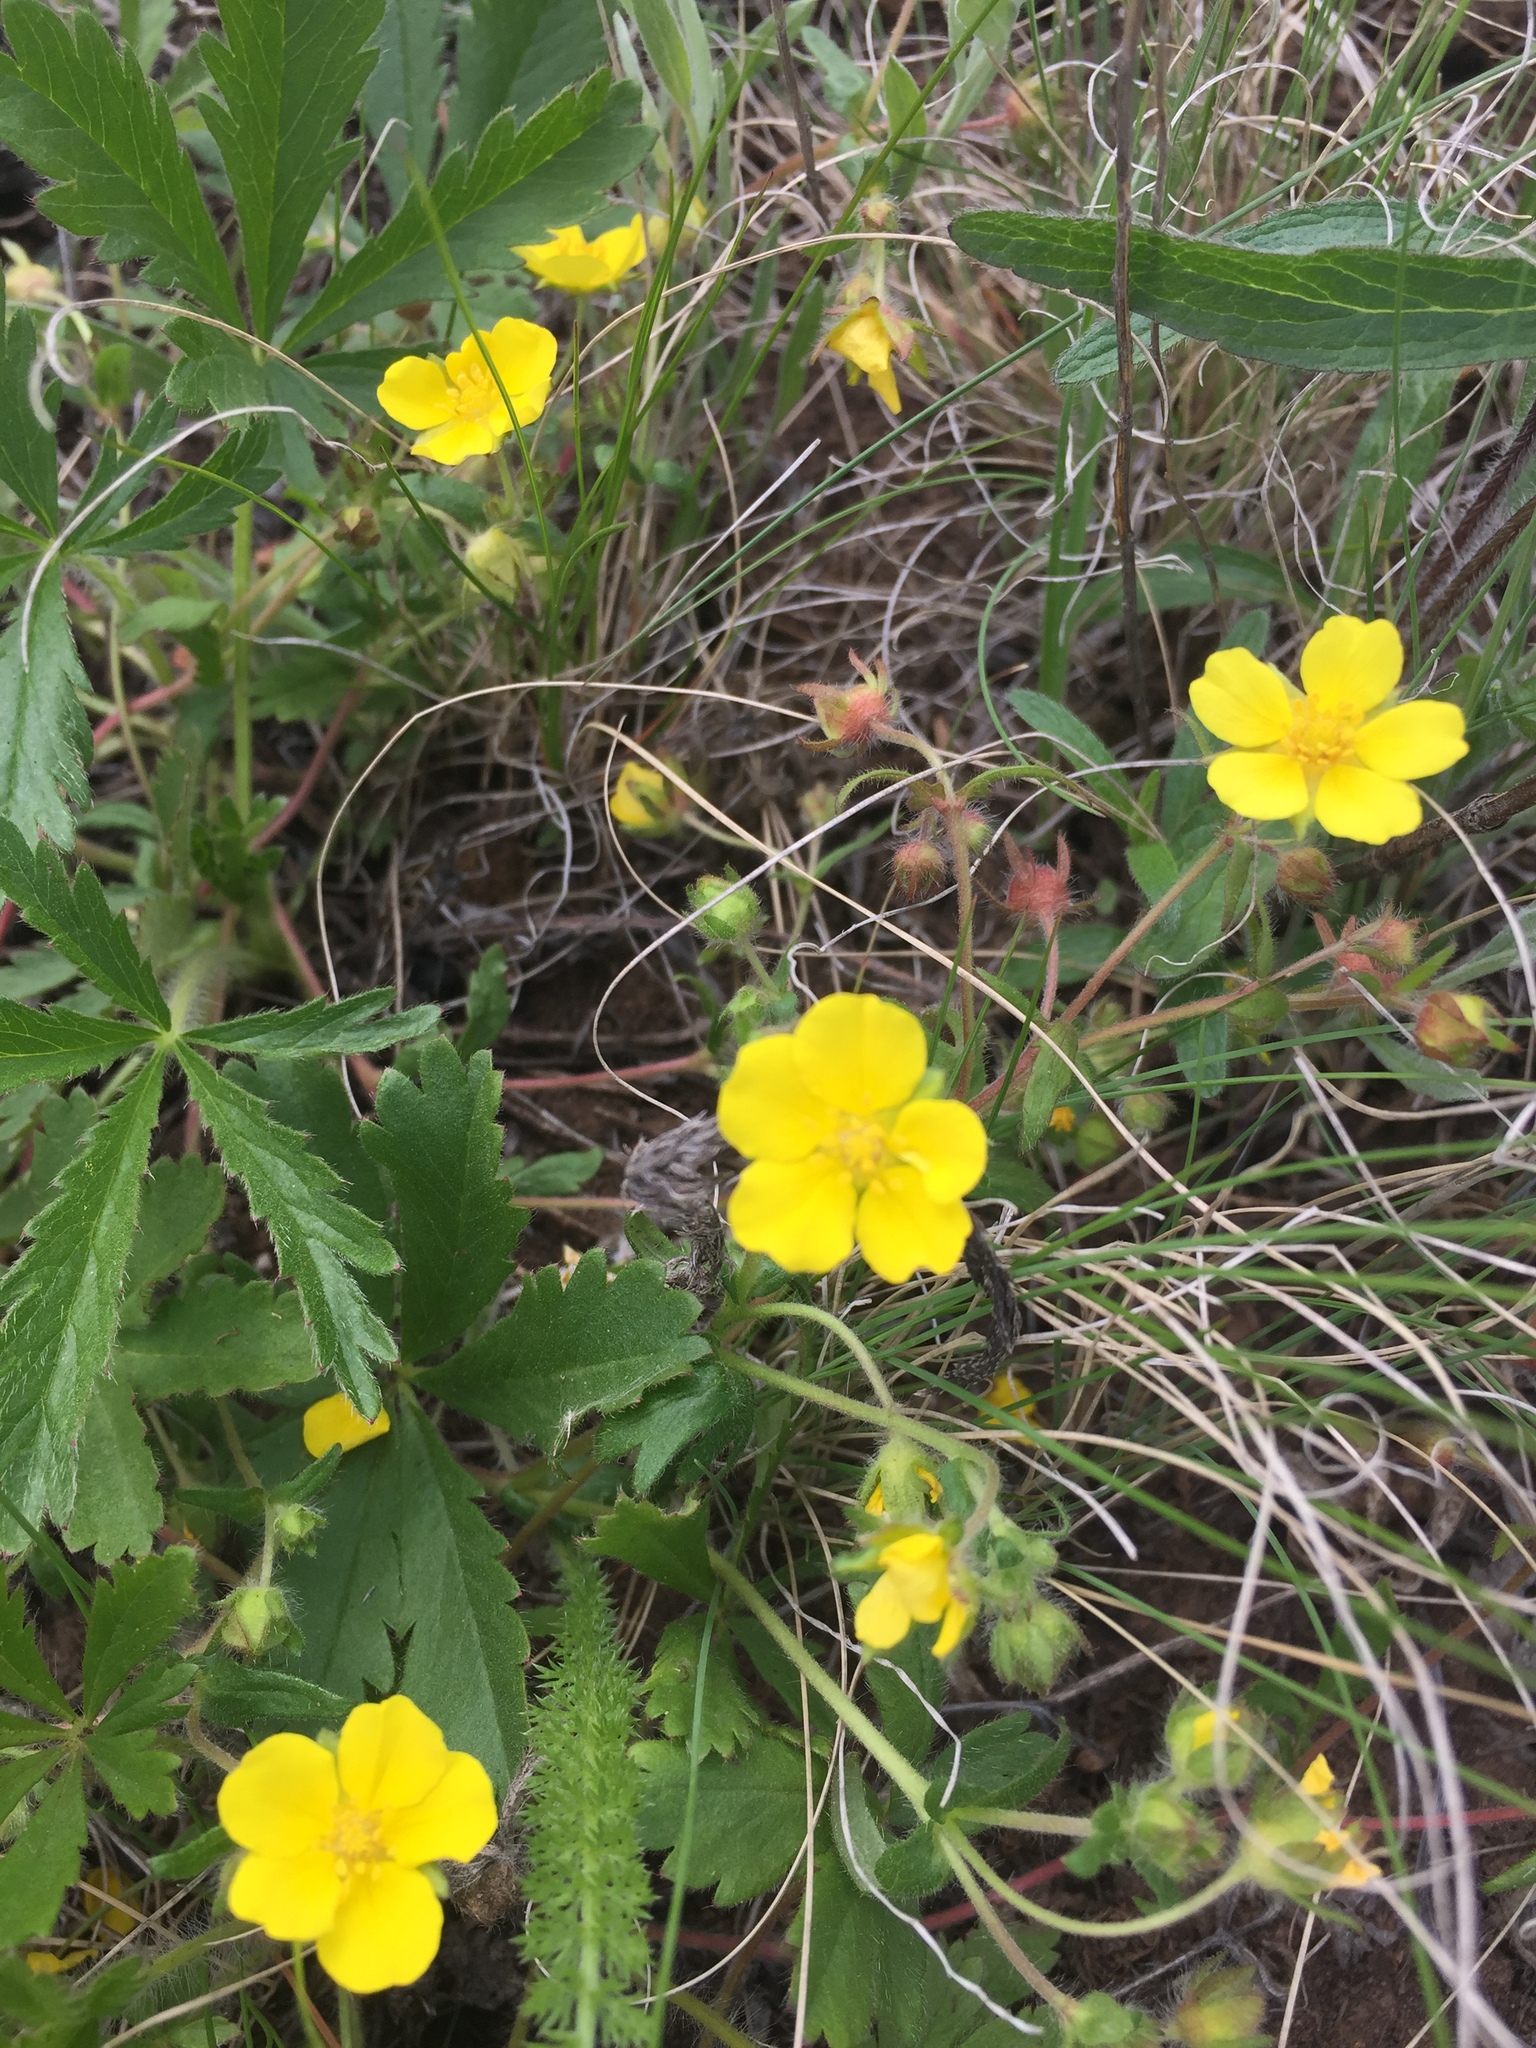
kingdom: Plantae
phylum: Tracheophyta
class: Magnoliopsida
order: Rosales
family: Rosaceae
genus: Potentilla
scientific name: Potentilla humifusa
